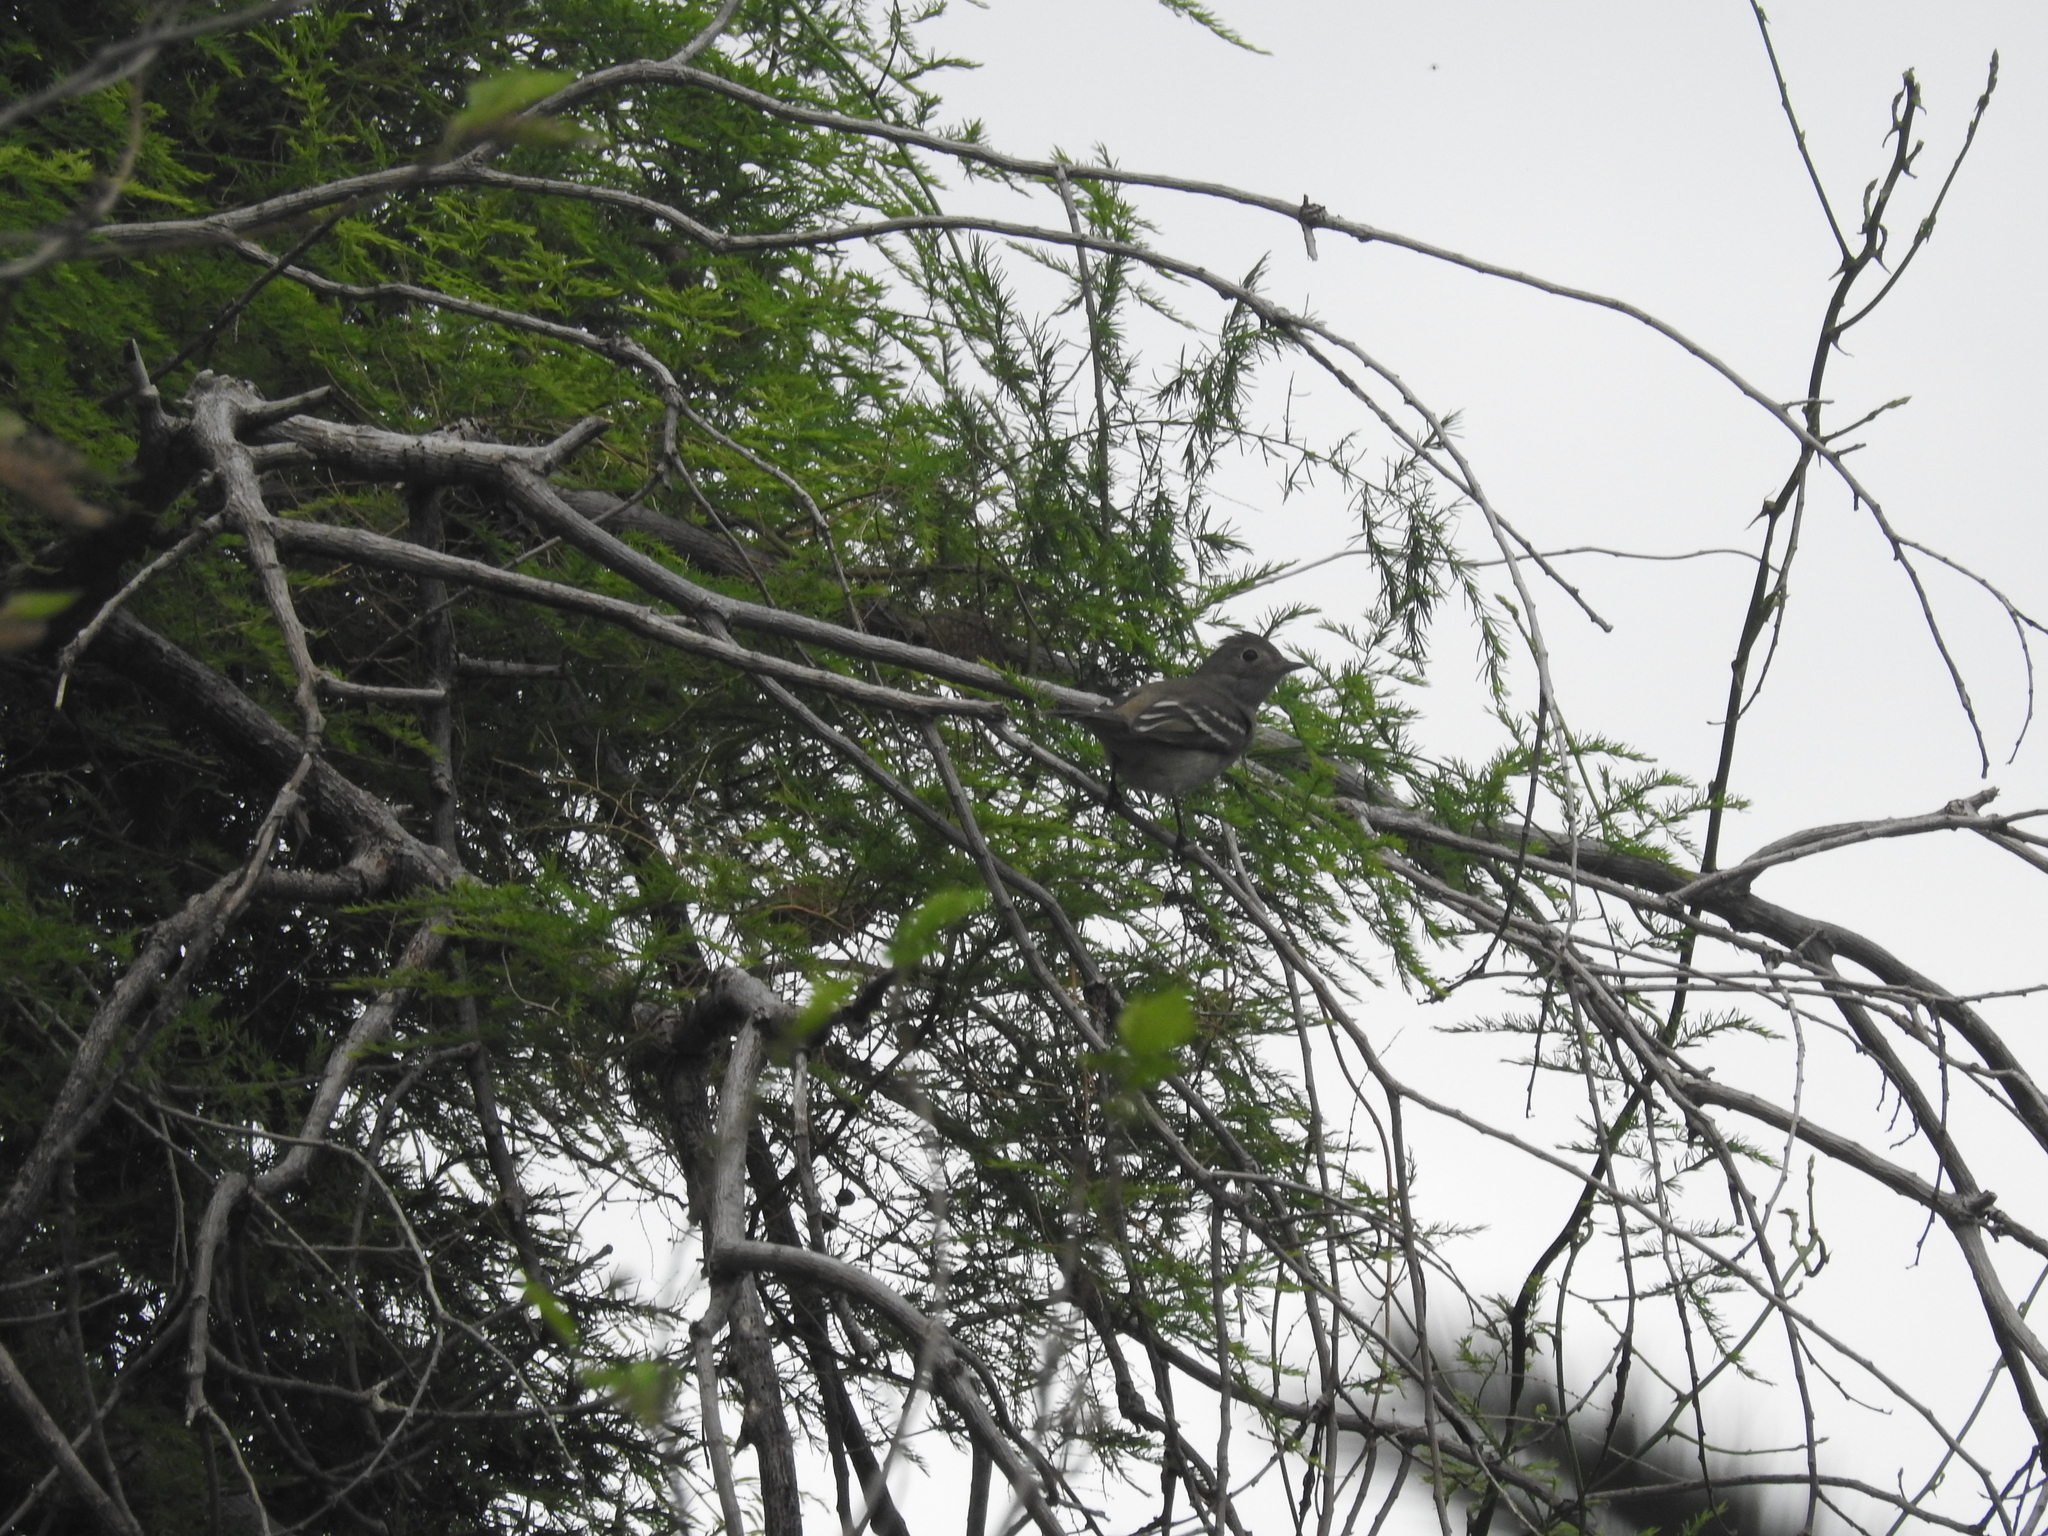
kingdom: Animalia
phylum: Chordata
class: Aves
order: Passeriformes
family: Tyrannidae
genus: Elaenia
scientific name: Elaenia albiceps
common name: White-crested elaenia
